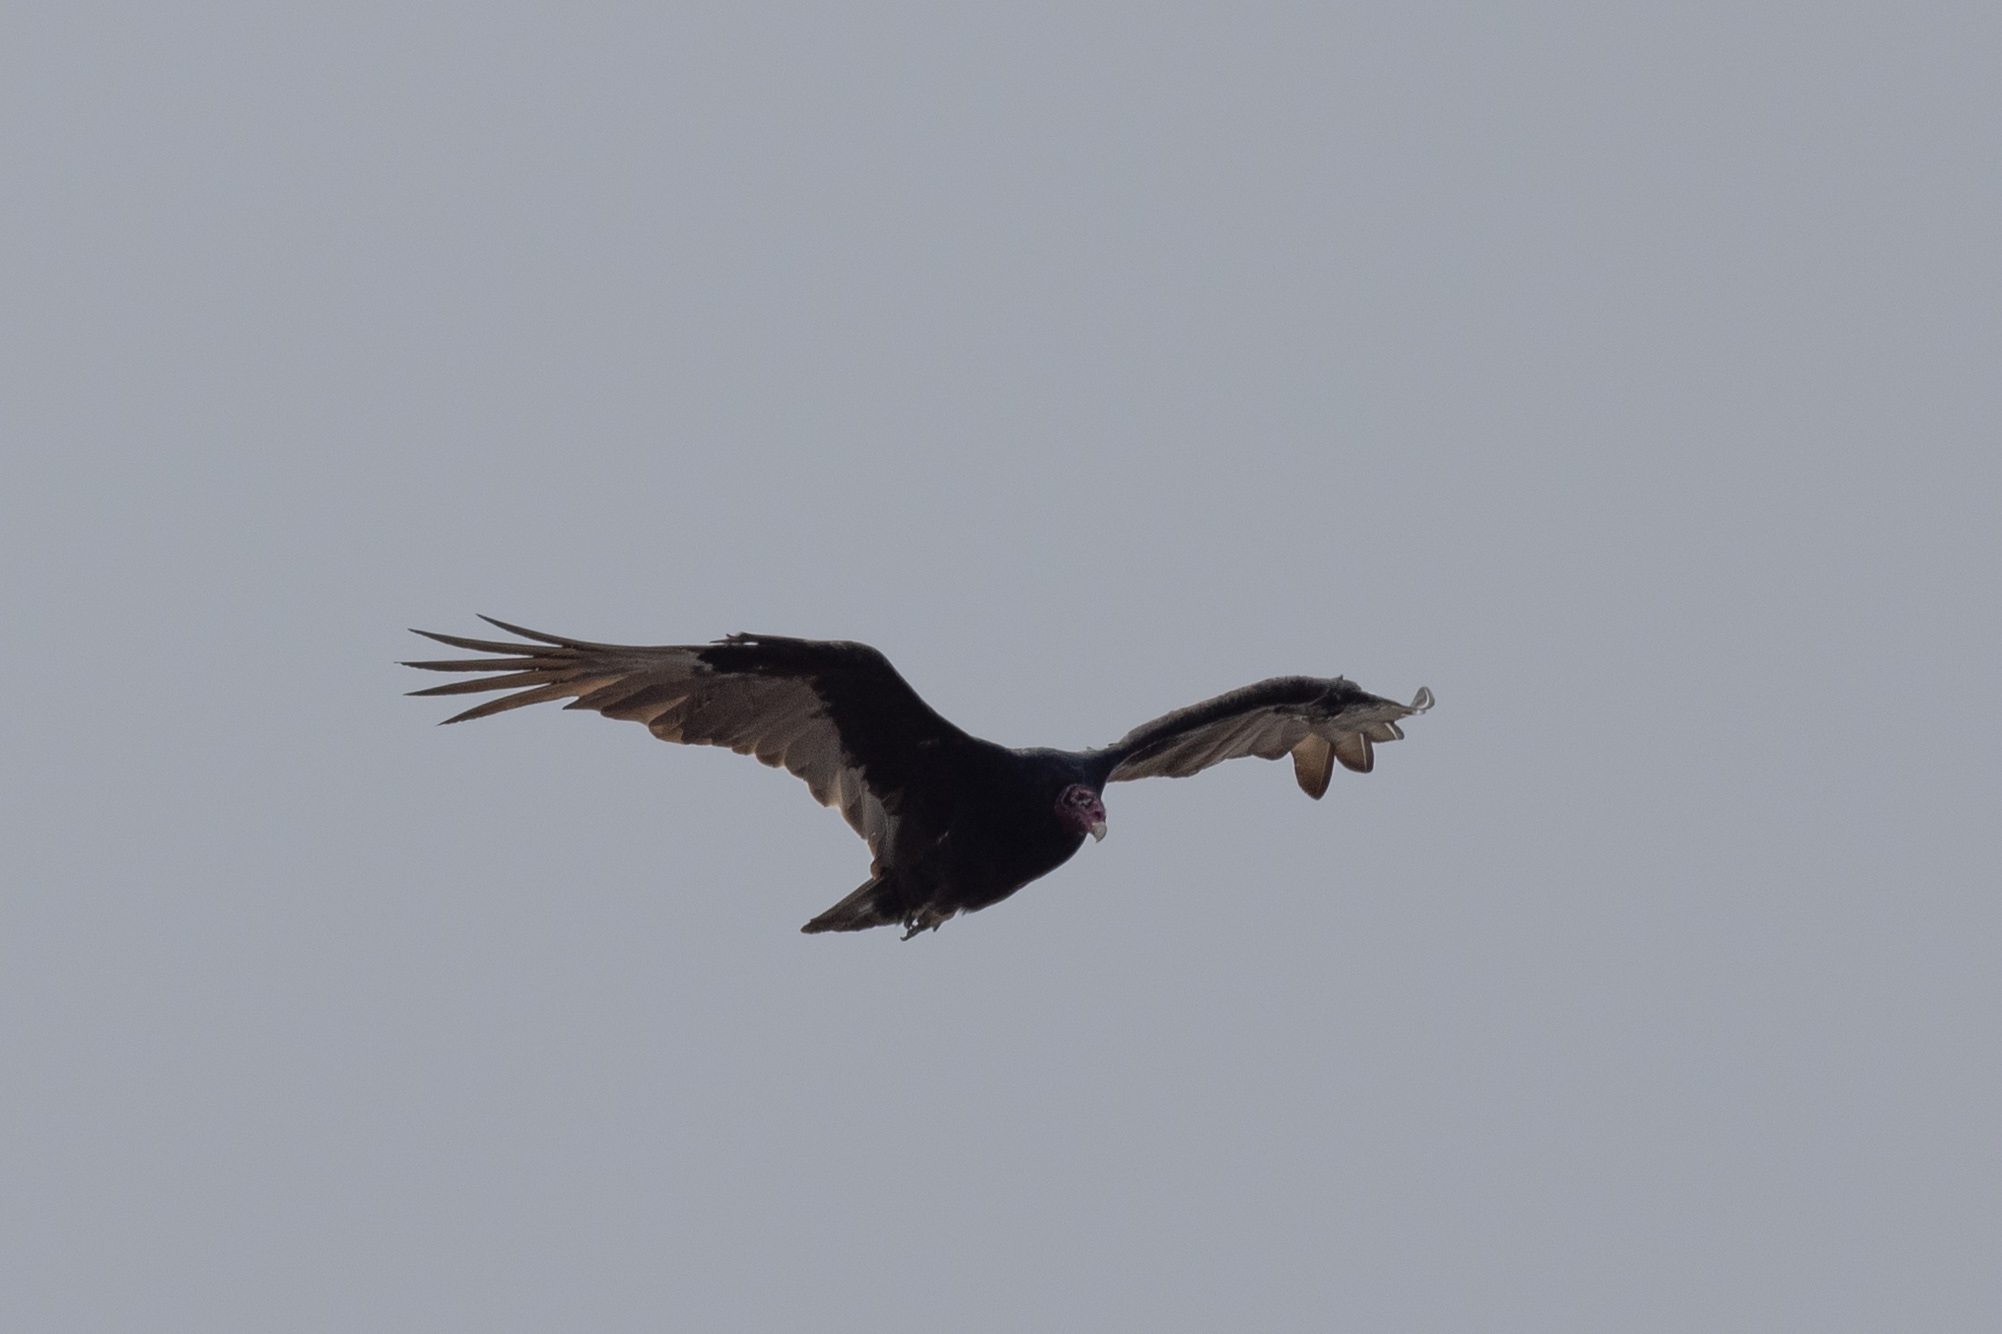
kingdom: Animalia
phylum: Chordata
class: Aves
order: Accipitriformes
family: Cathartidae
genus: Cathartes
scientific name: Cathartes aura
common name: Turkey vulture
